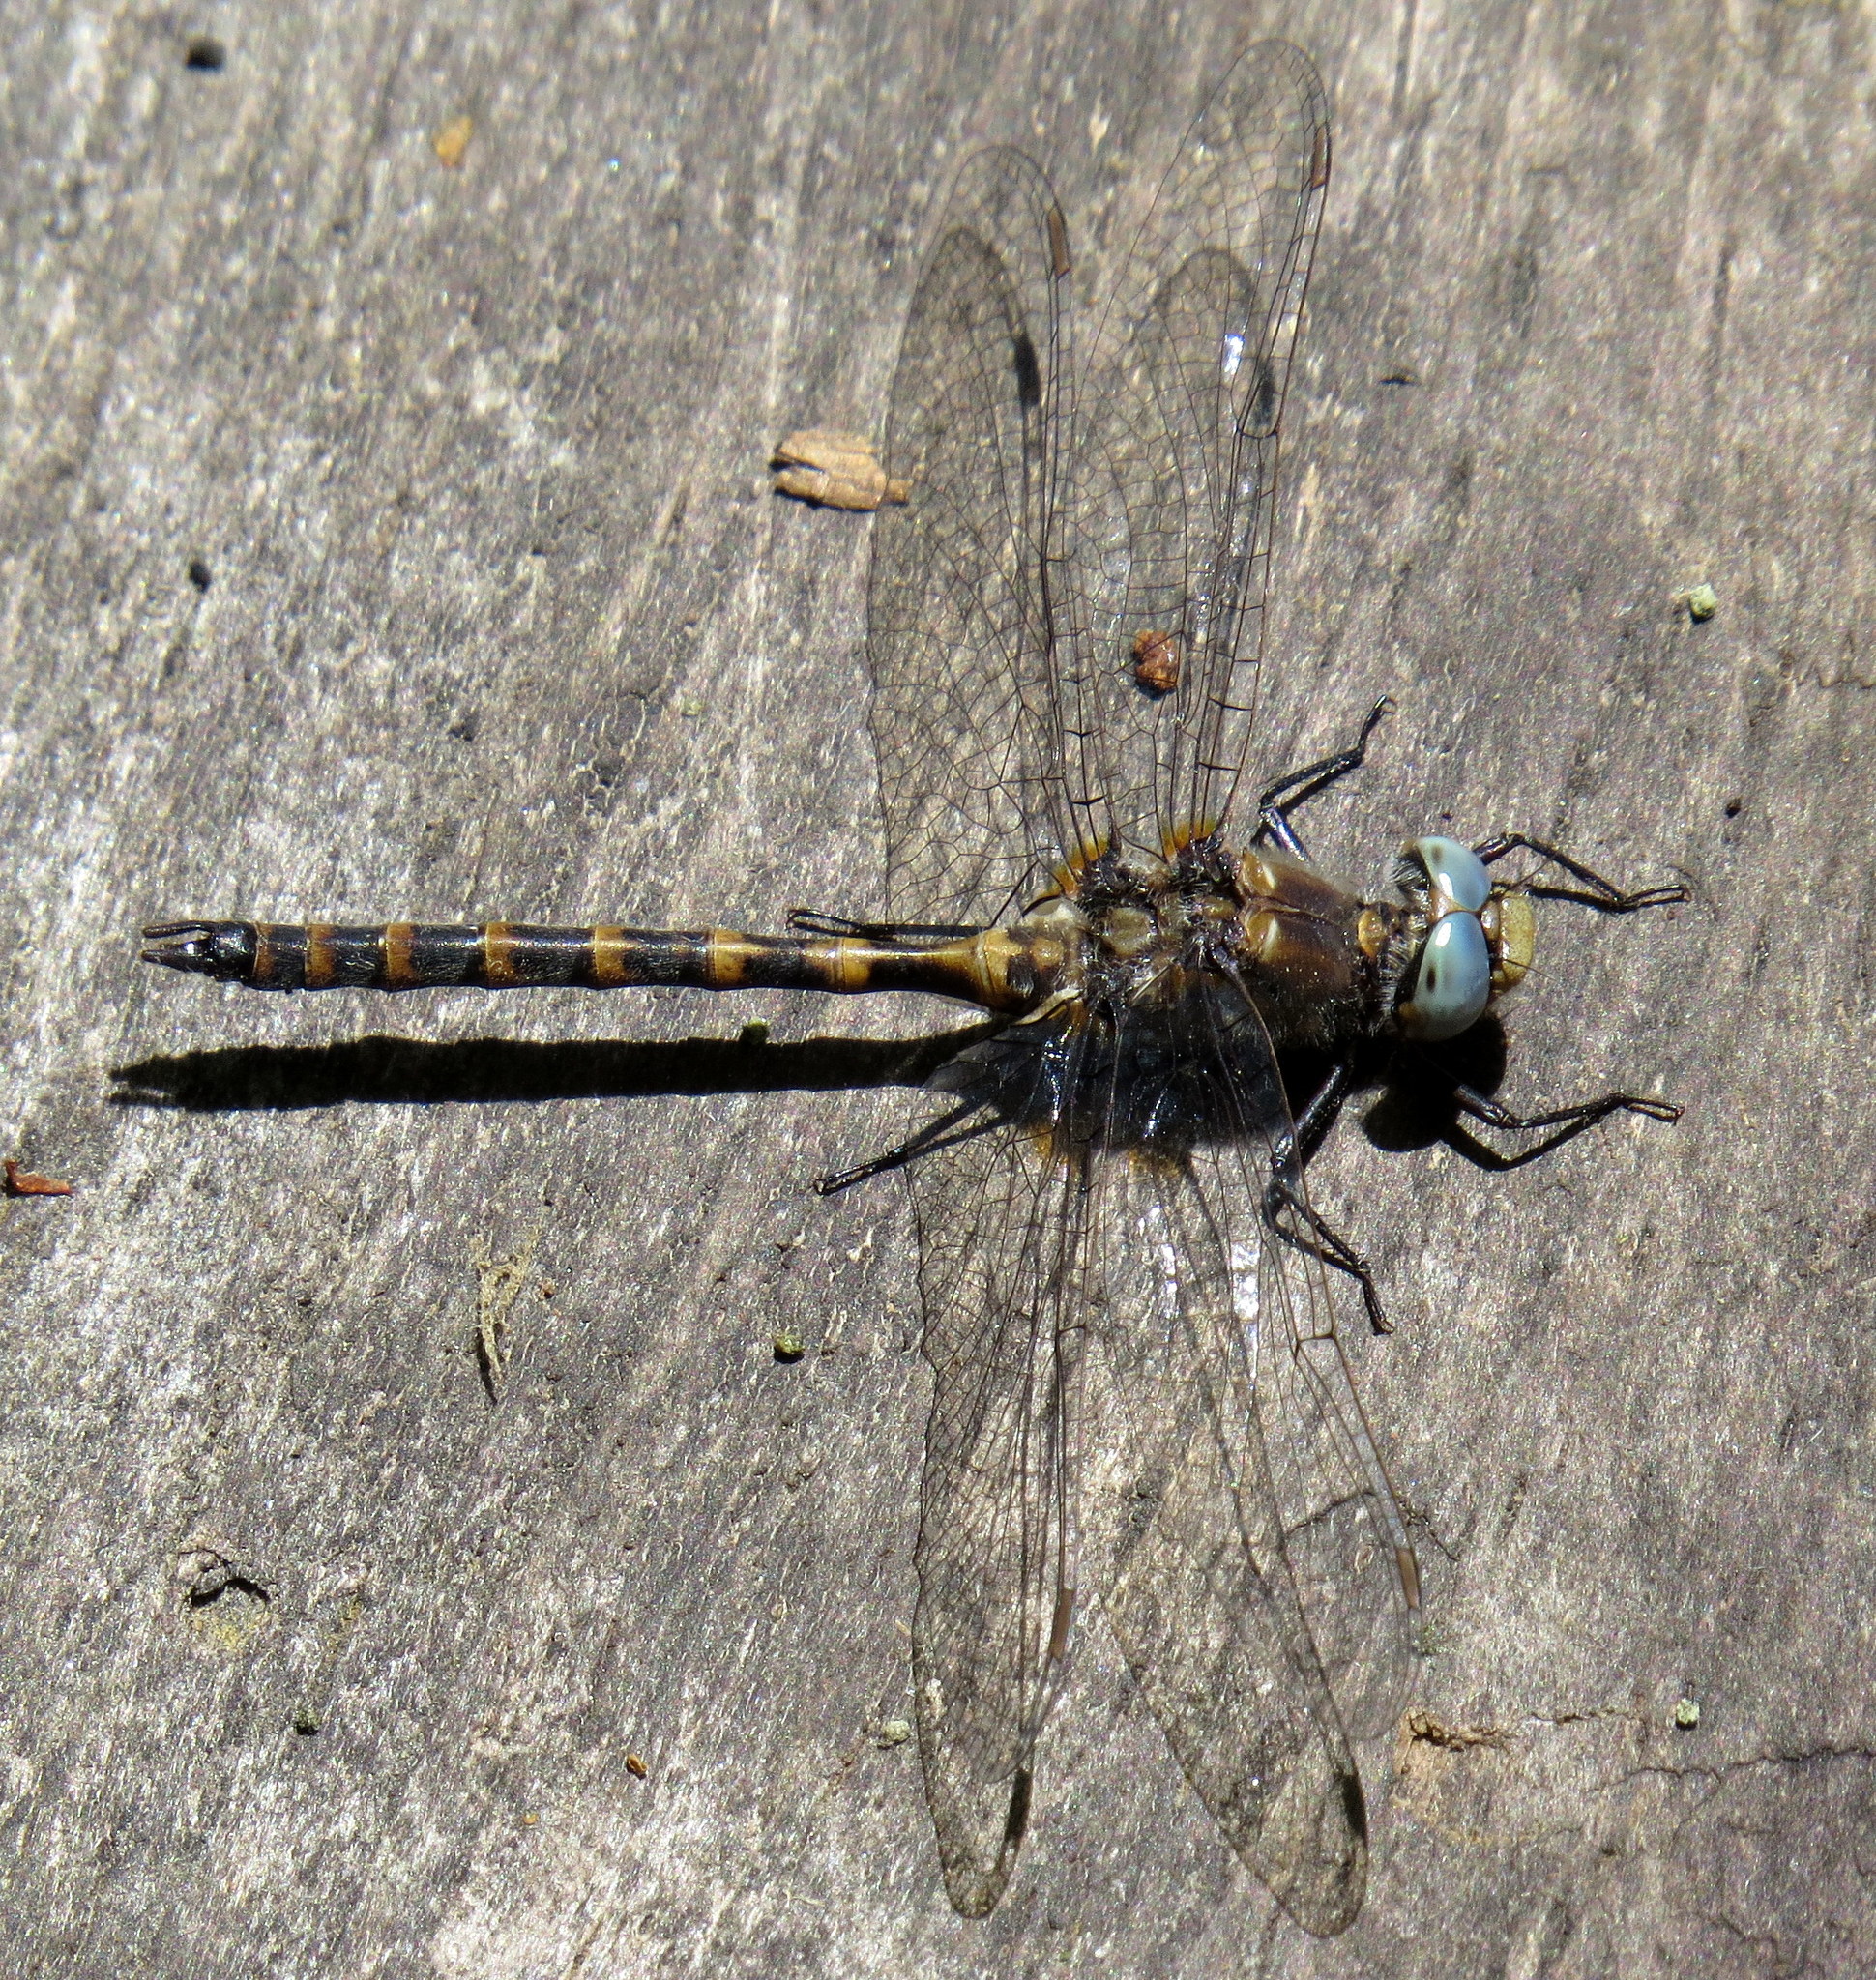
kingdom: Animalia
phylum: Arthropoda
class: Insecta
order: Odonata
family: Corduliidae
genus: Williamsonia
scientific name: Williamsonia lintneri
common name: Ringed boghaunter
